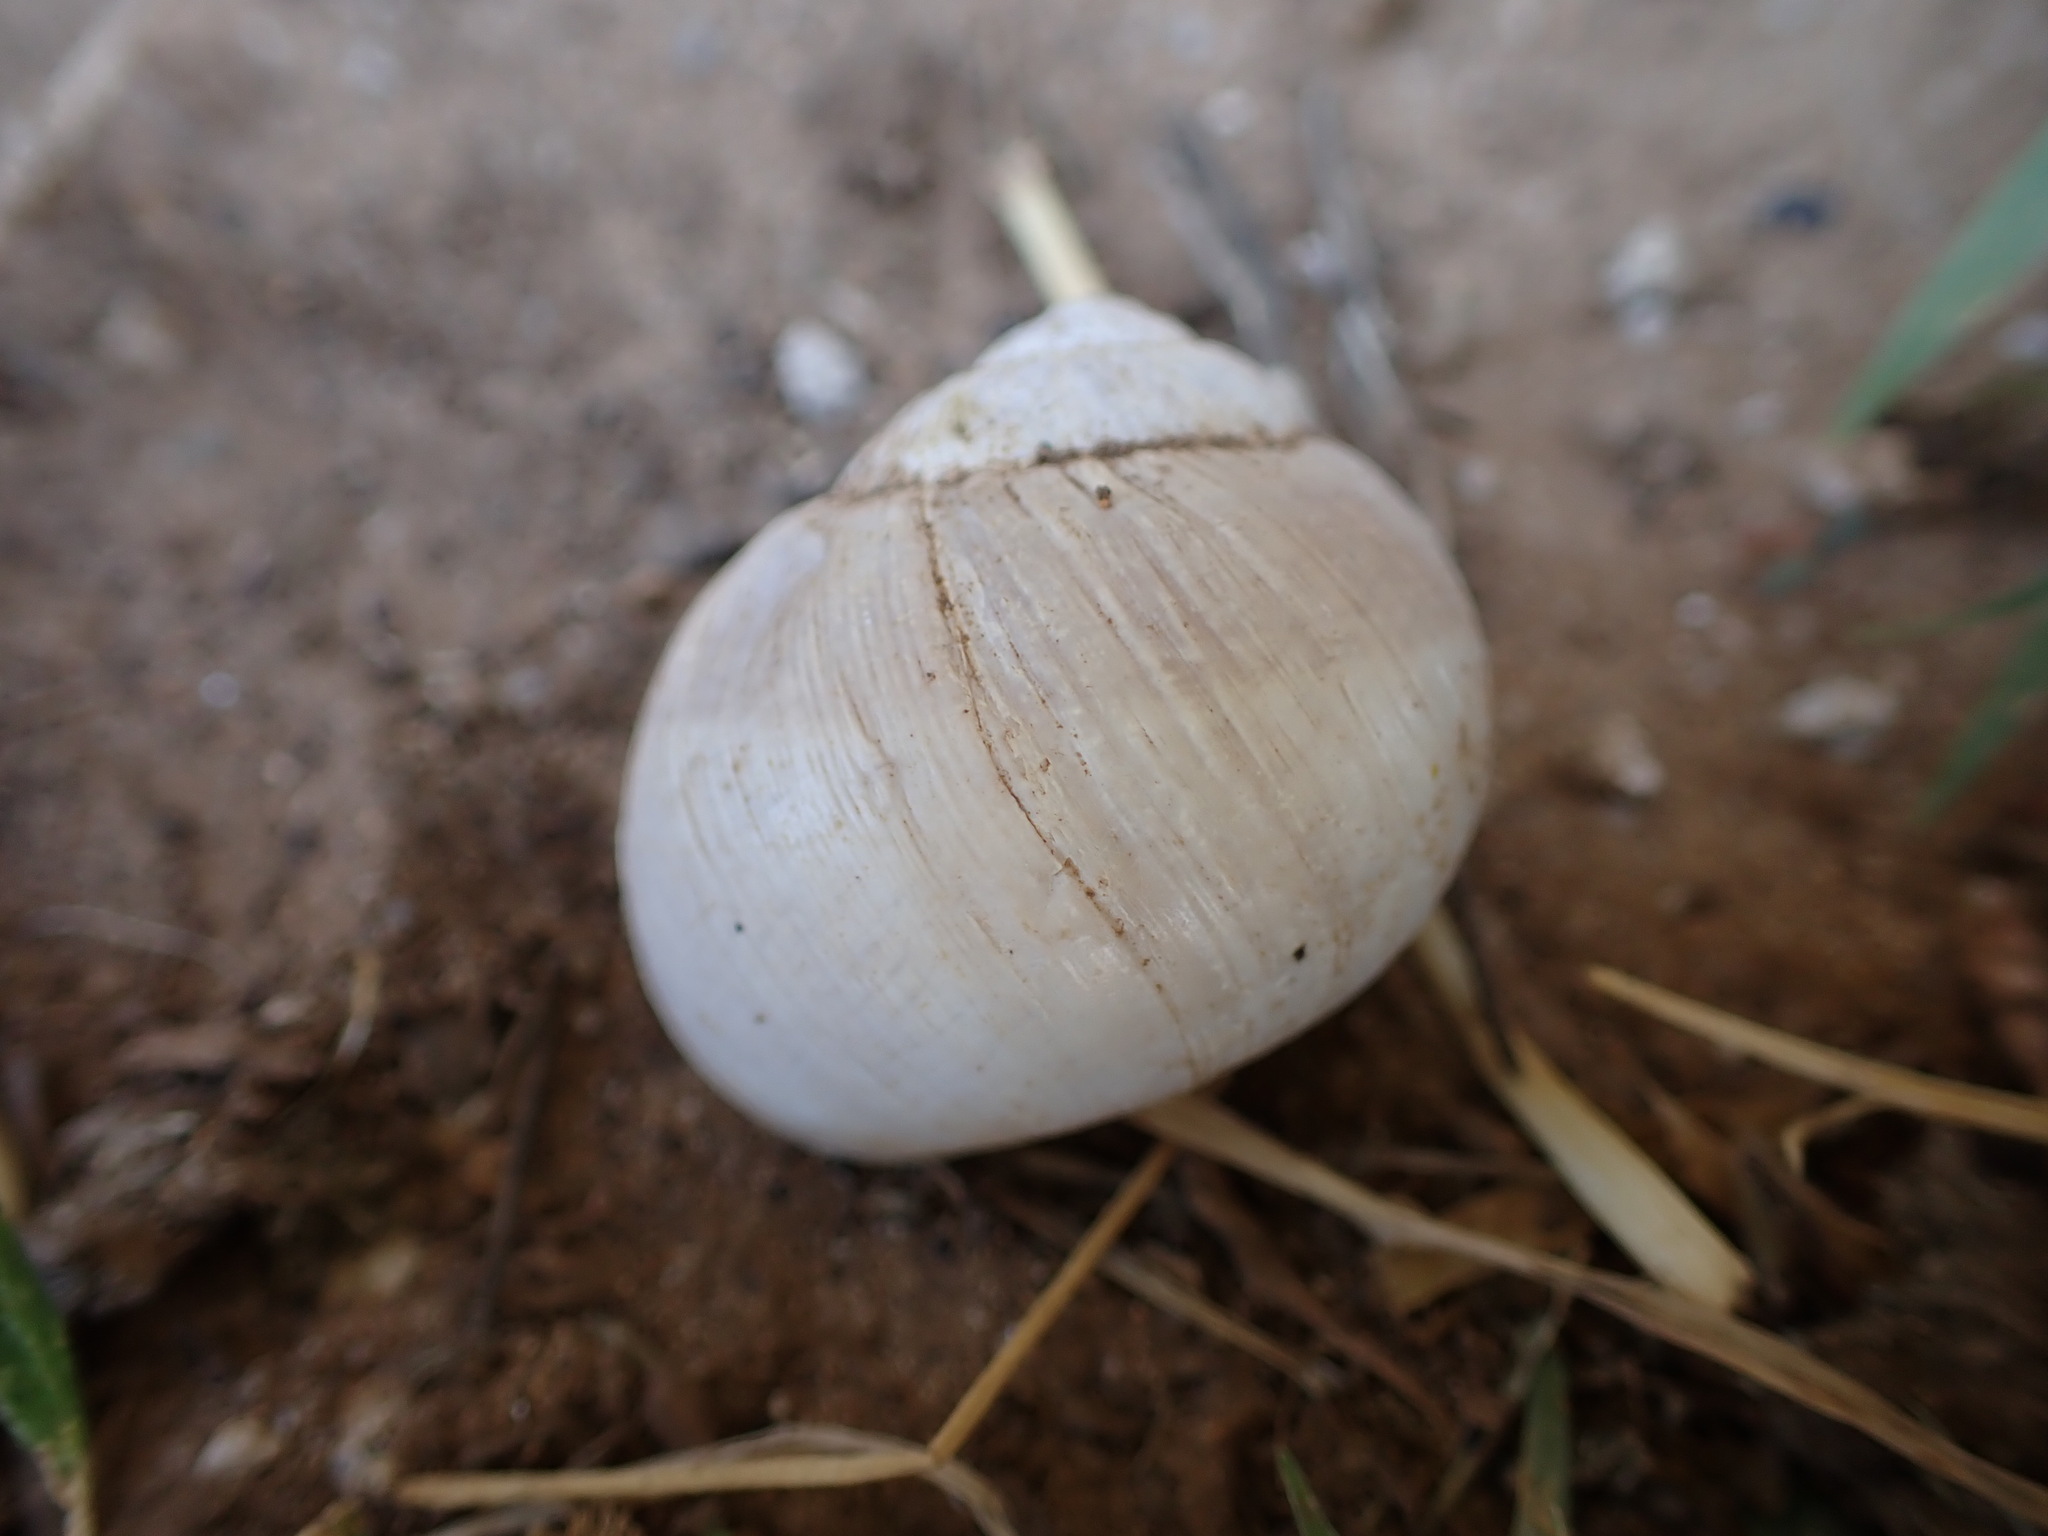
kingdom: Animalia
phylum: Mollusca
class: Gastropoda
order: Stylommatophora
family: Helicidae
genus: Helix
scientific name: Helix melanostoma
